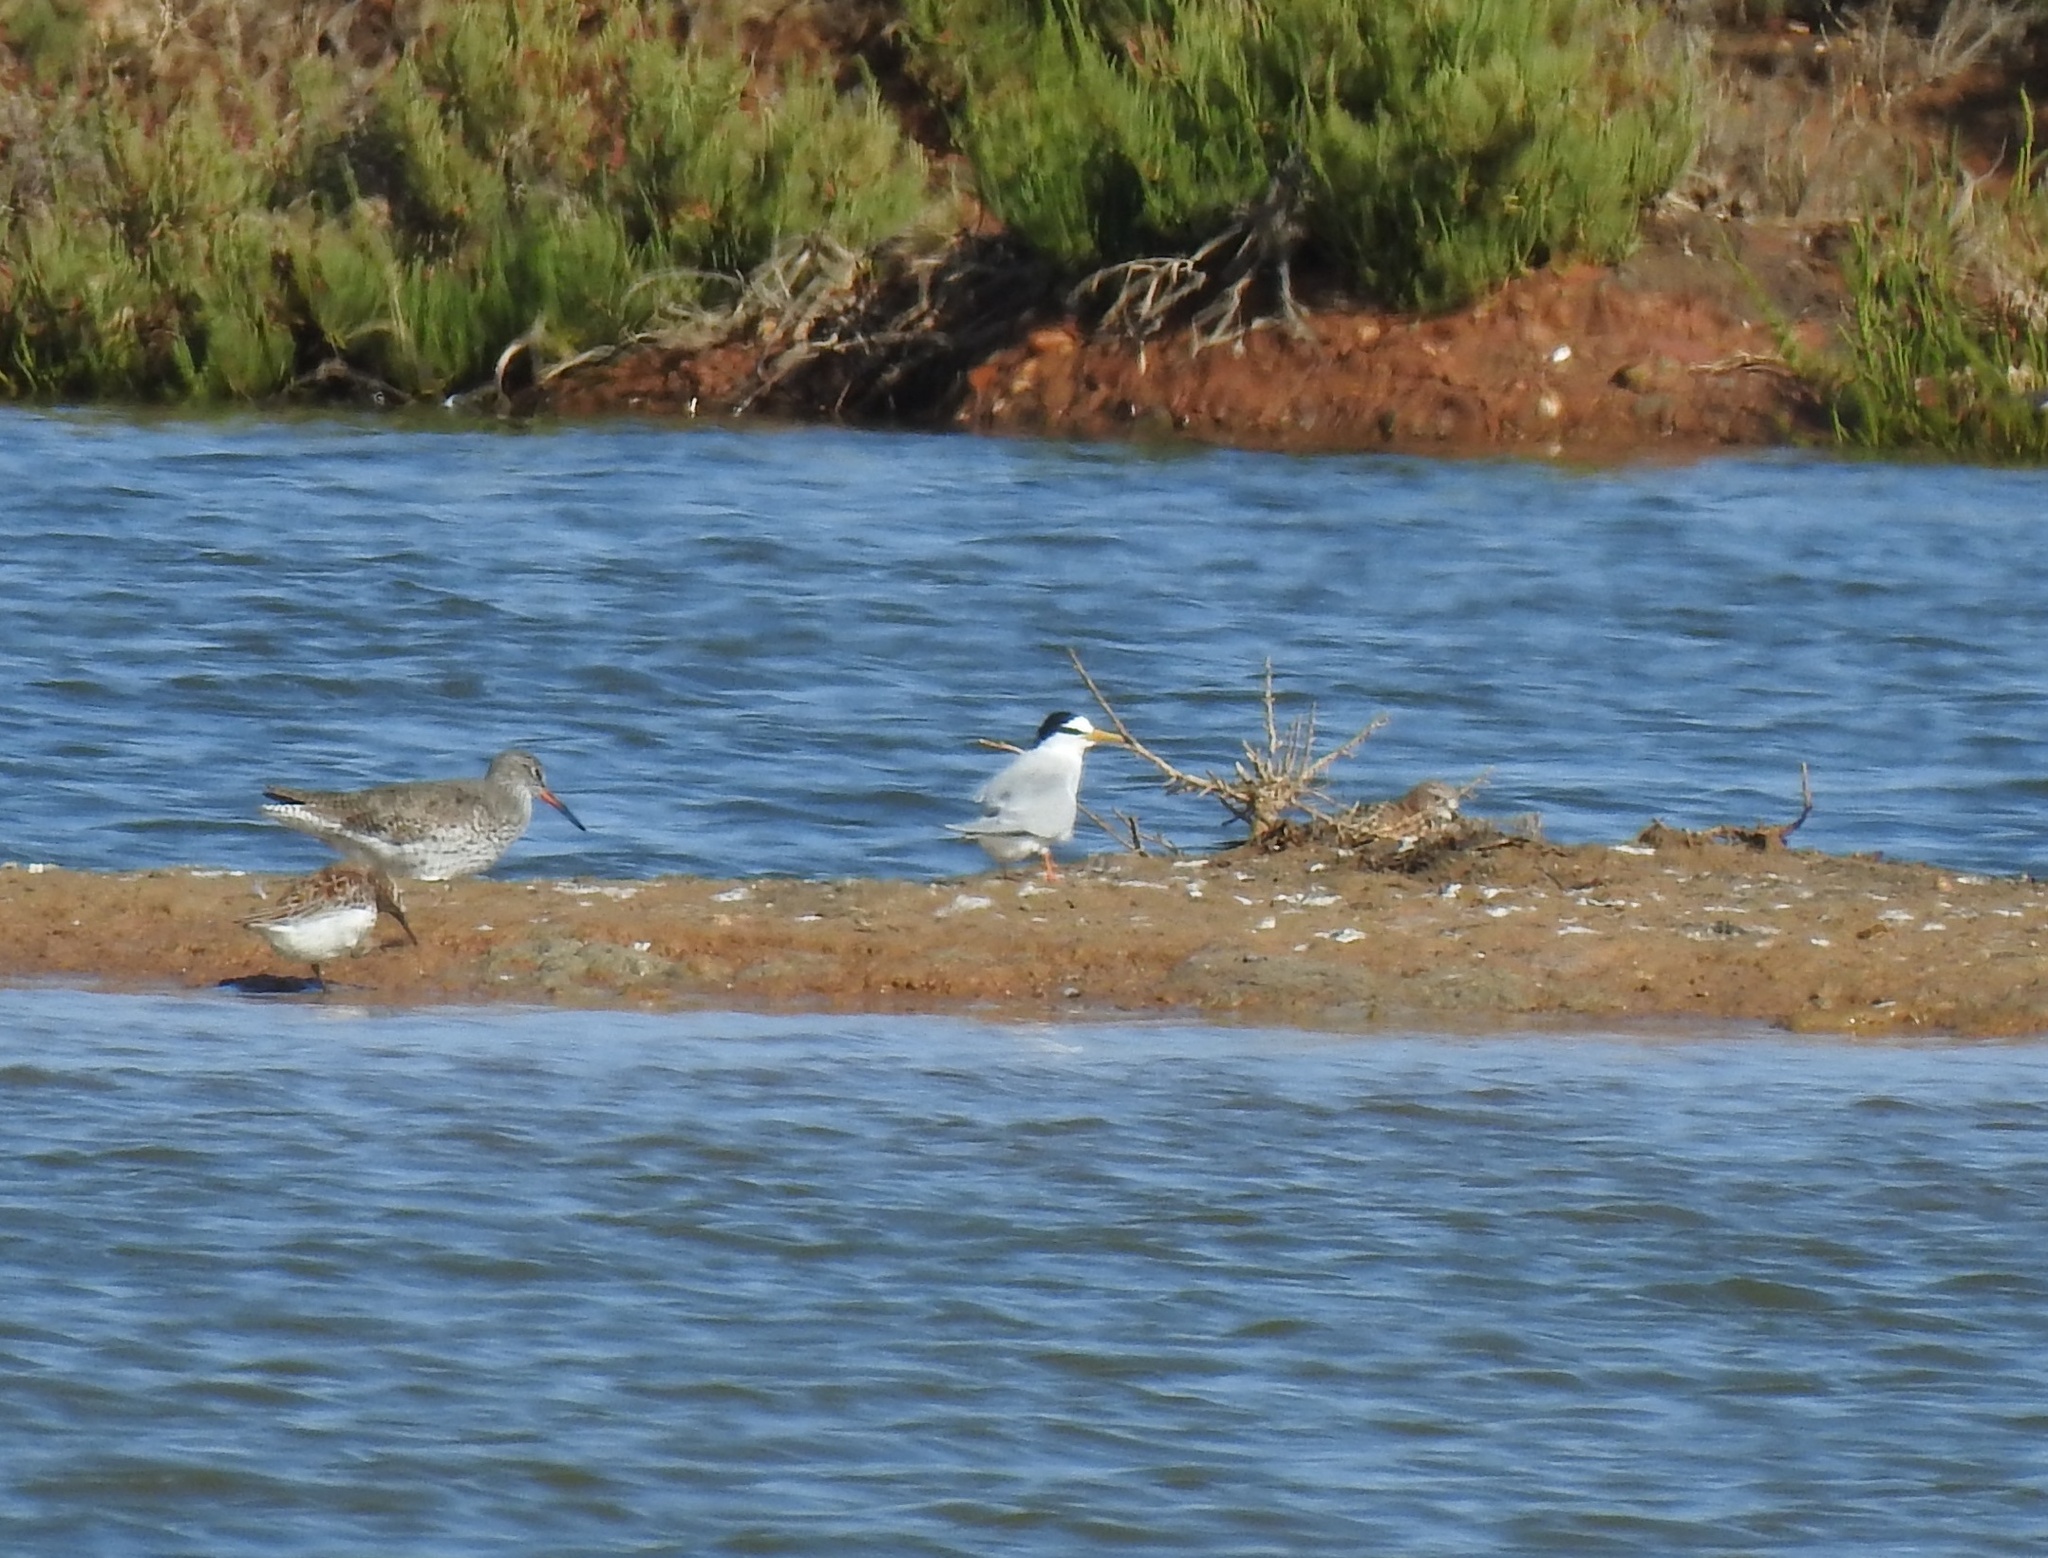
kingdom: Animalia
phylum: Chordata
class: Aves
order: Charadriiformes
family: Laridae
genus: Sternula
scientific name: Sternula albifrons
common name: Little tern
